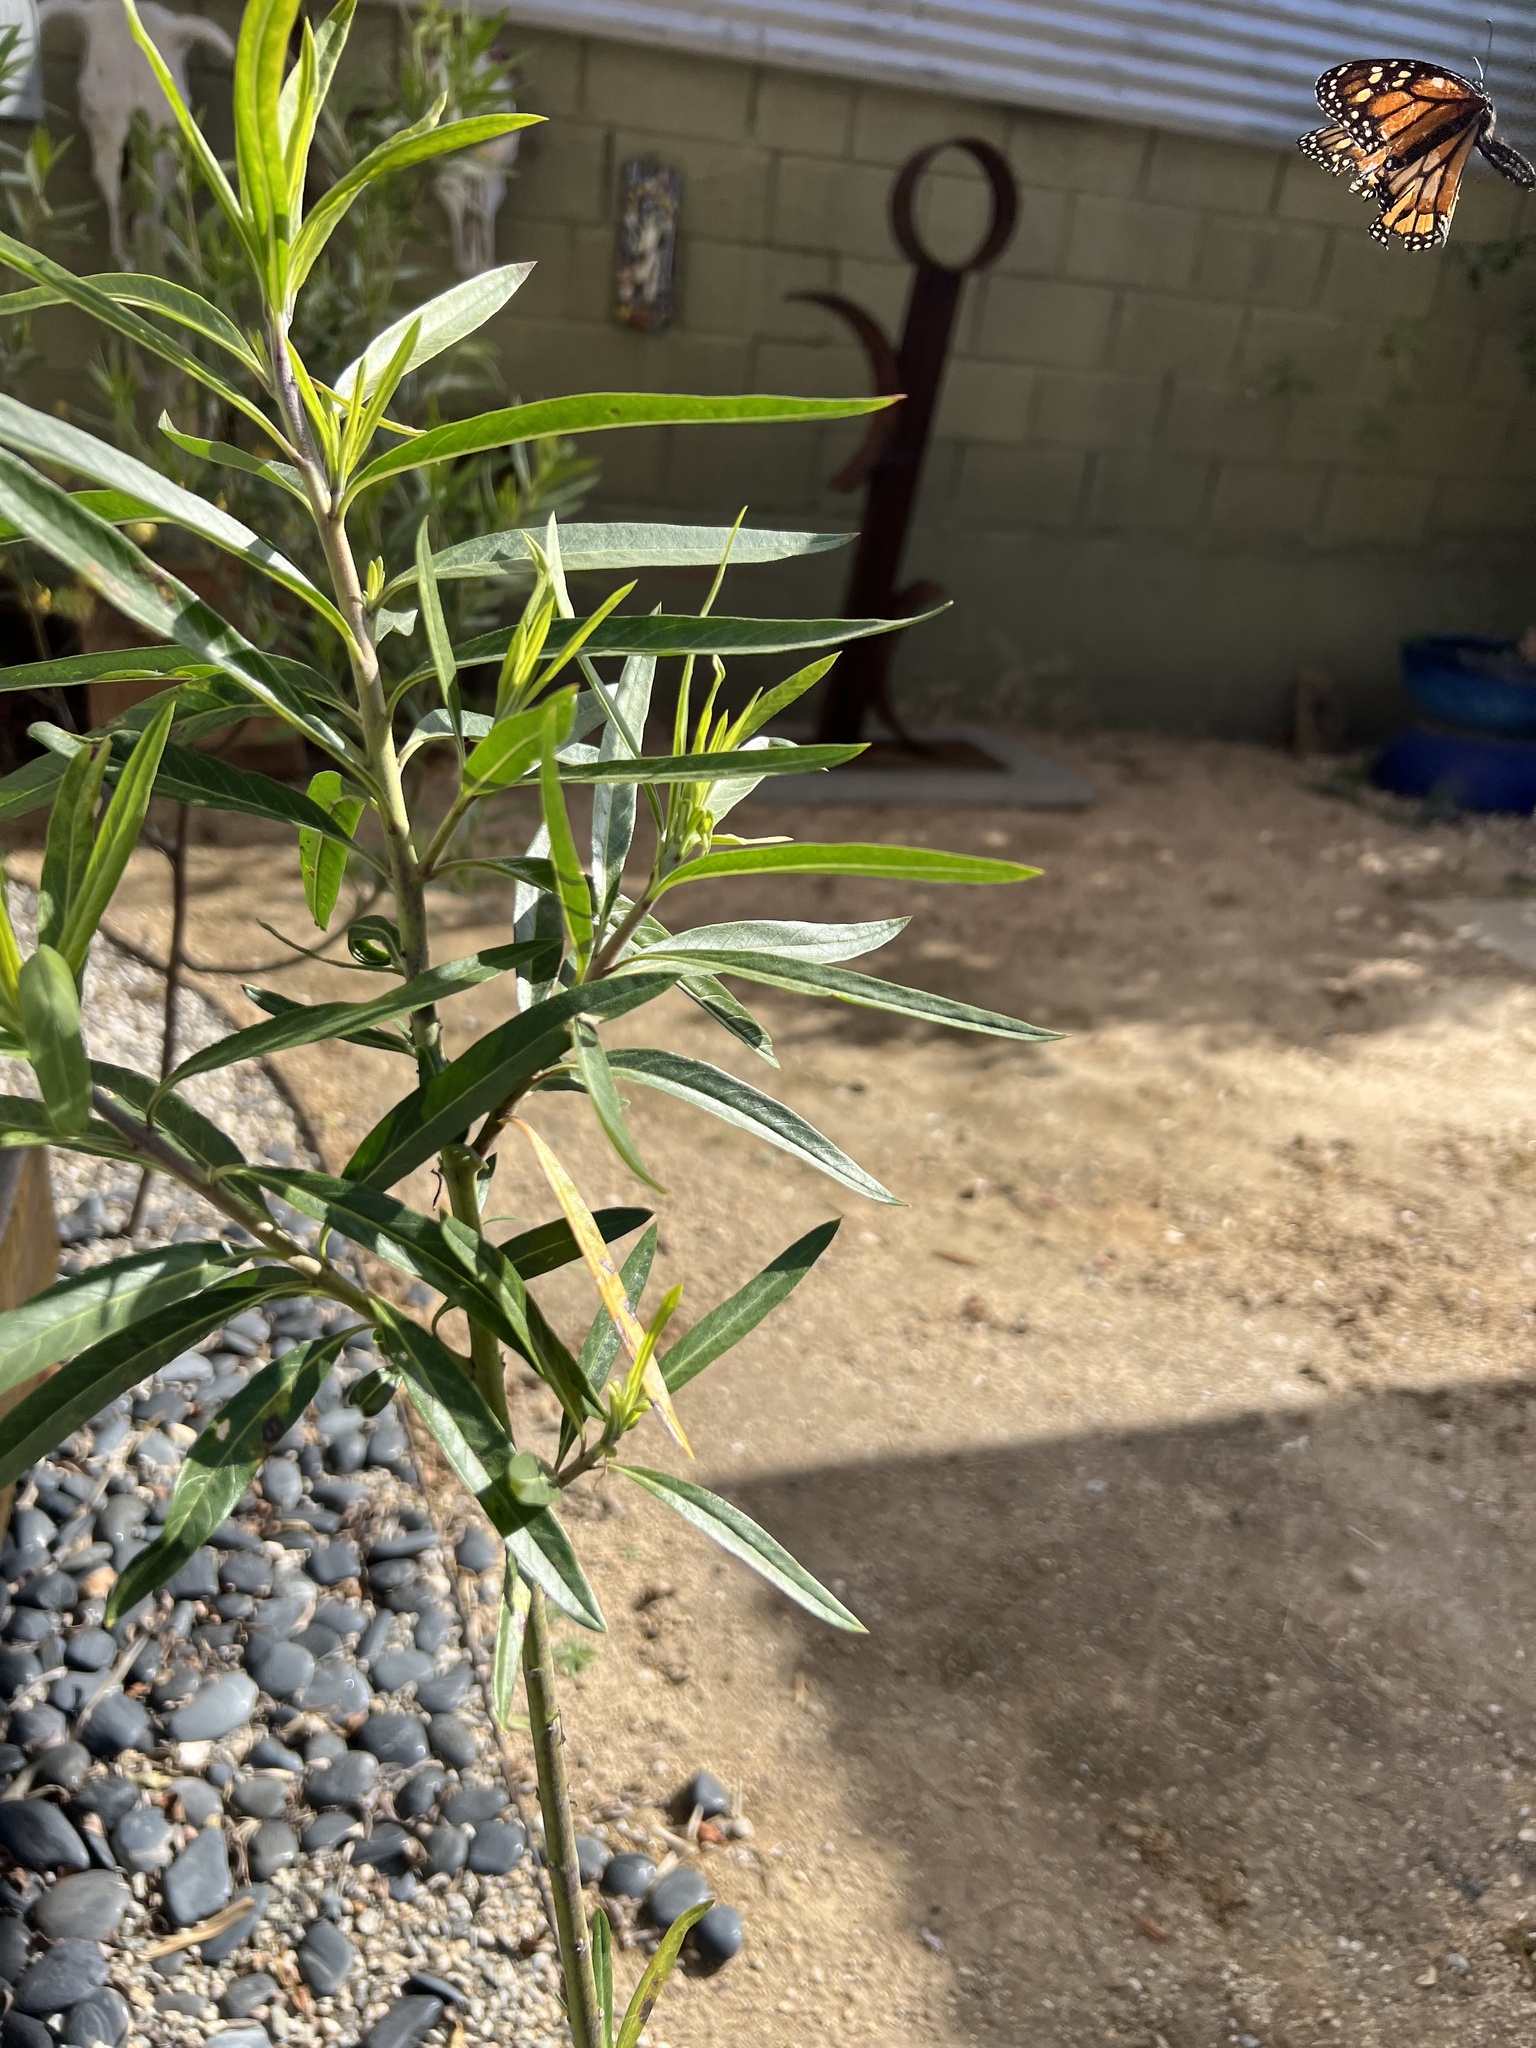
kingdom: Animalia
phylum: Arthropoda
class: Insecta
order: Lepidoptera
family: Nymphalidae
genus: Danaus
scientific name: Danaus plexippus
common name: Monarch
